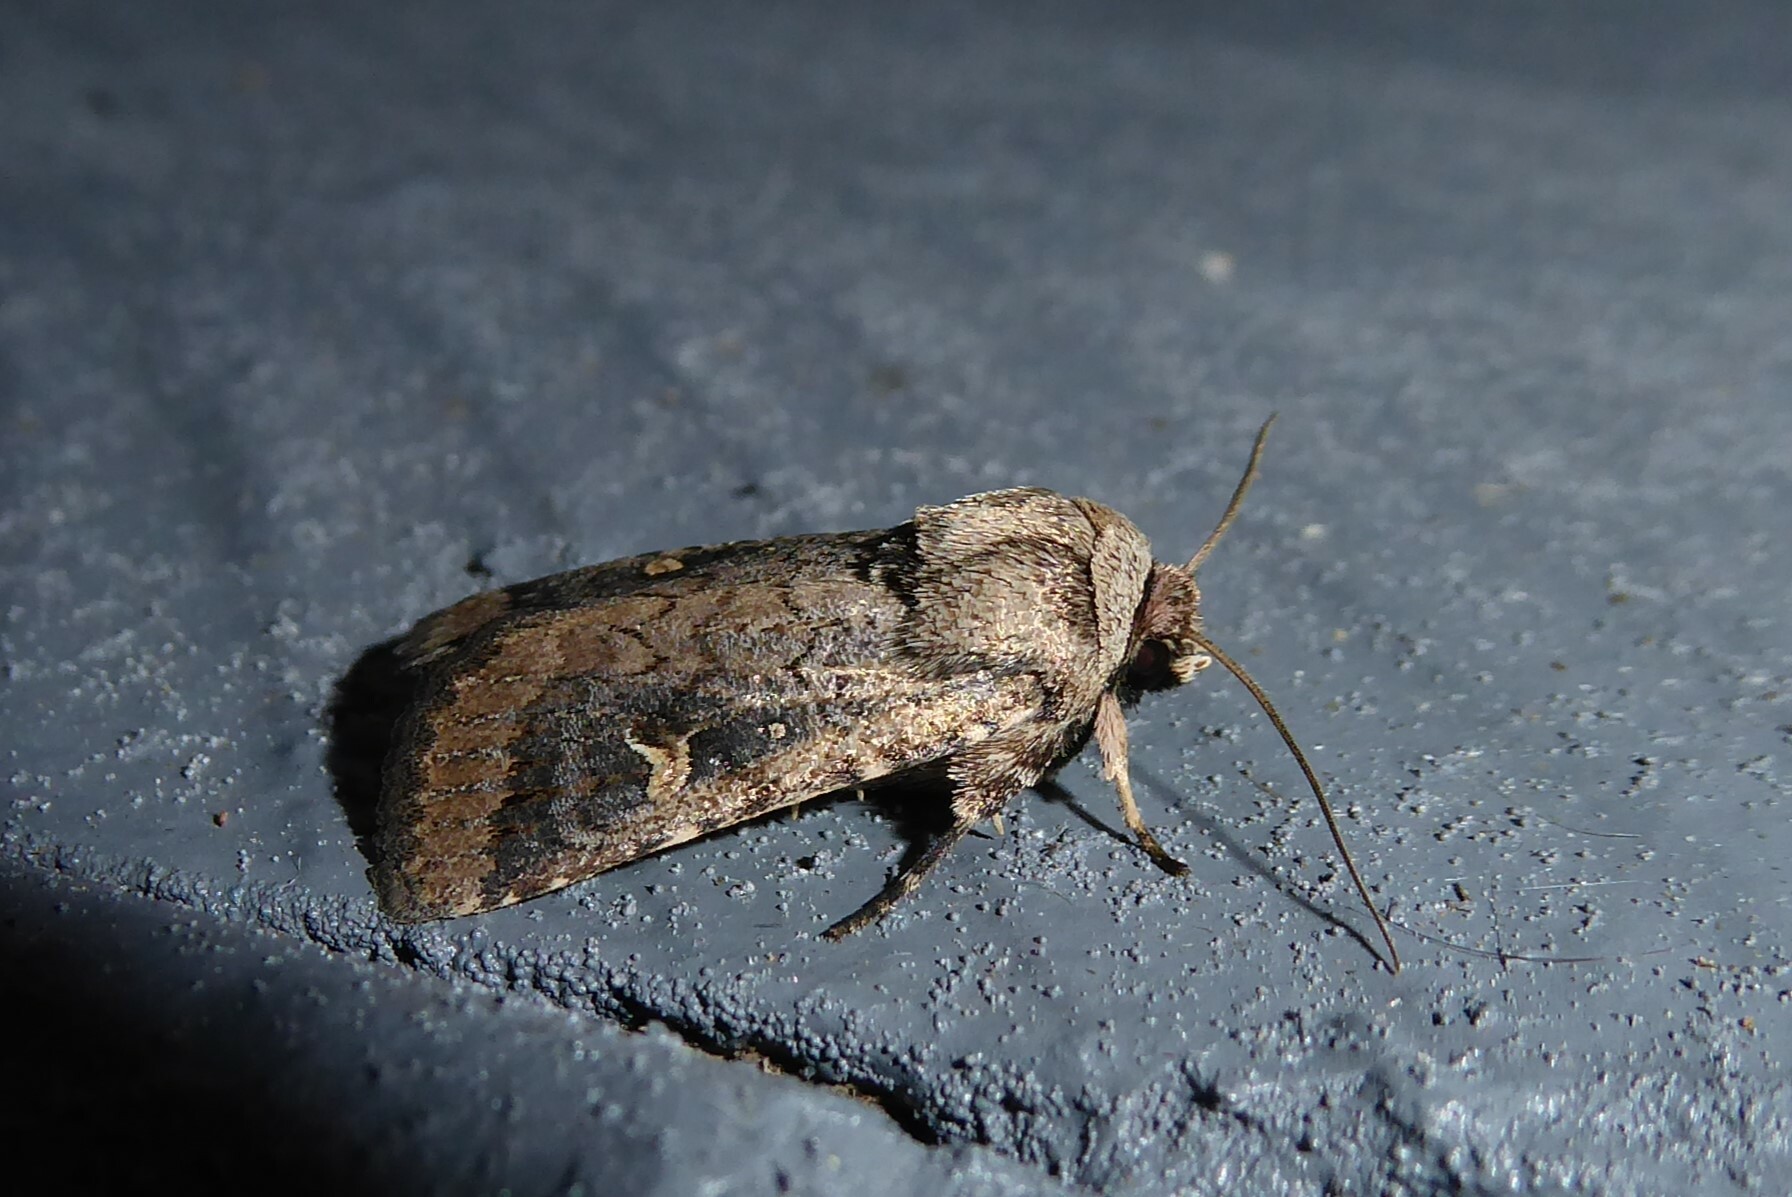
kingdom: Animalia
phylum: Arthropoda
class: Insecta
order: Lepidoptera
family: Noctuidae
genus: Proteuxoa
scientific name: Proteuxoa tetronycha
